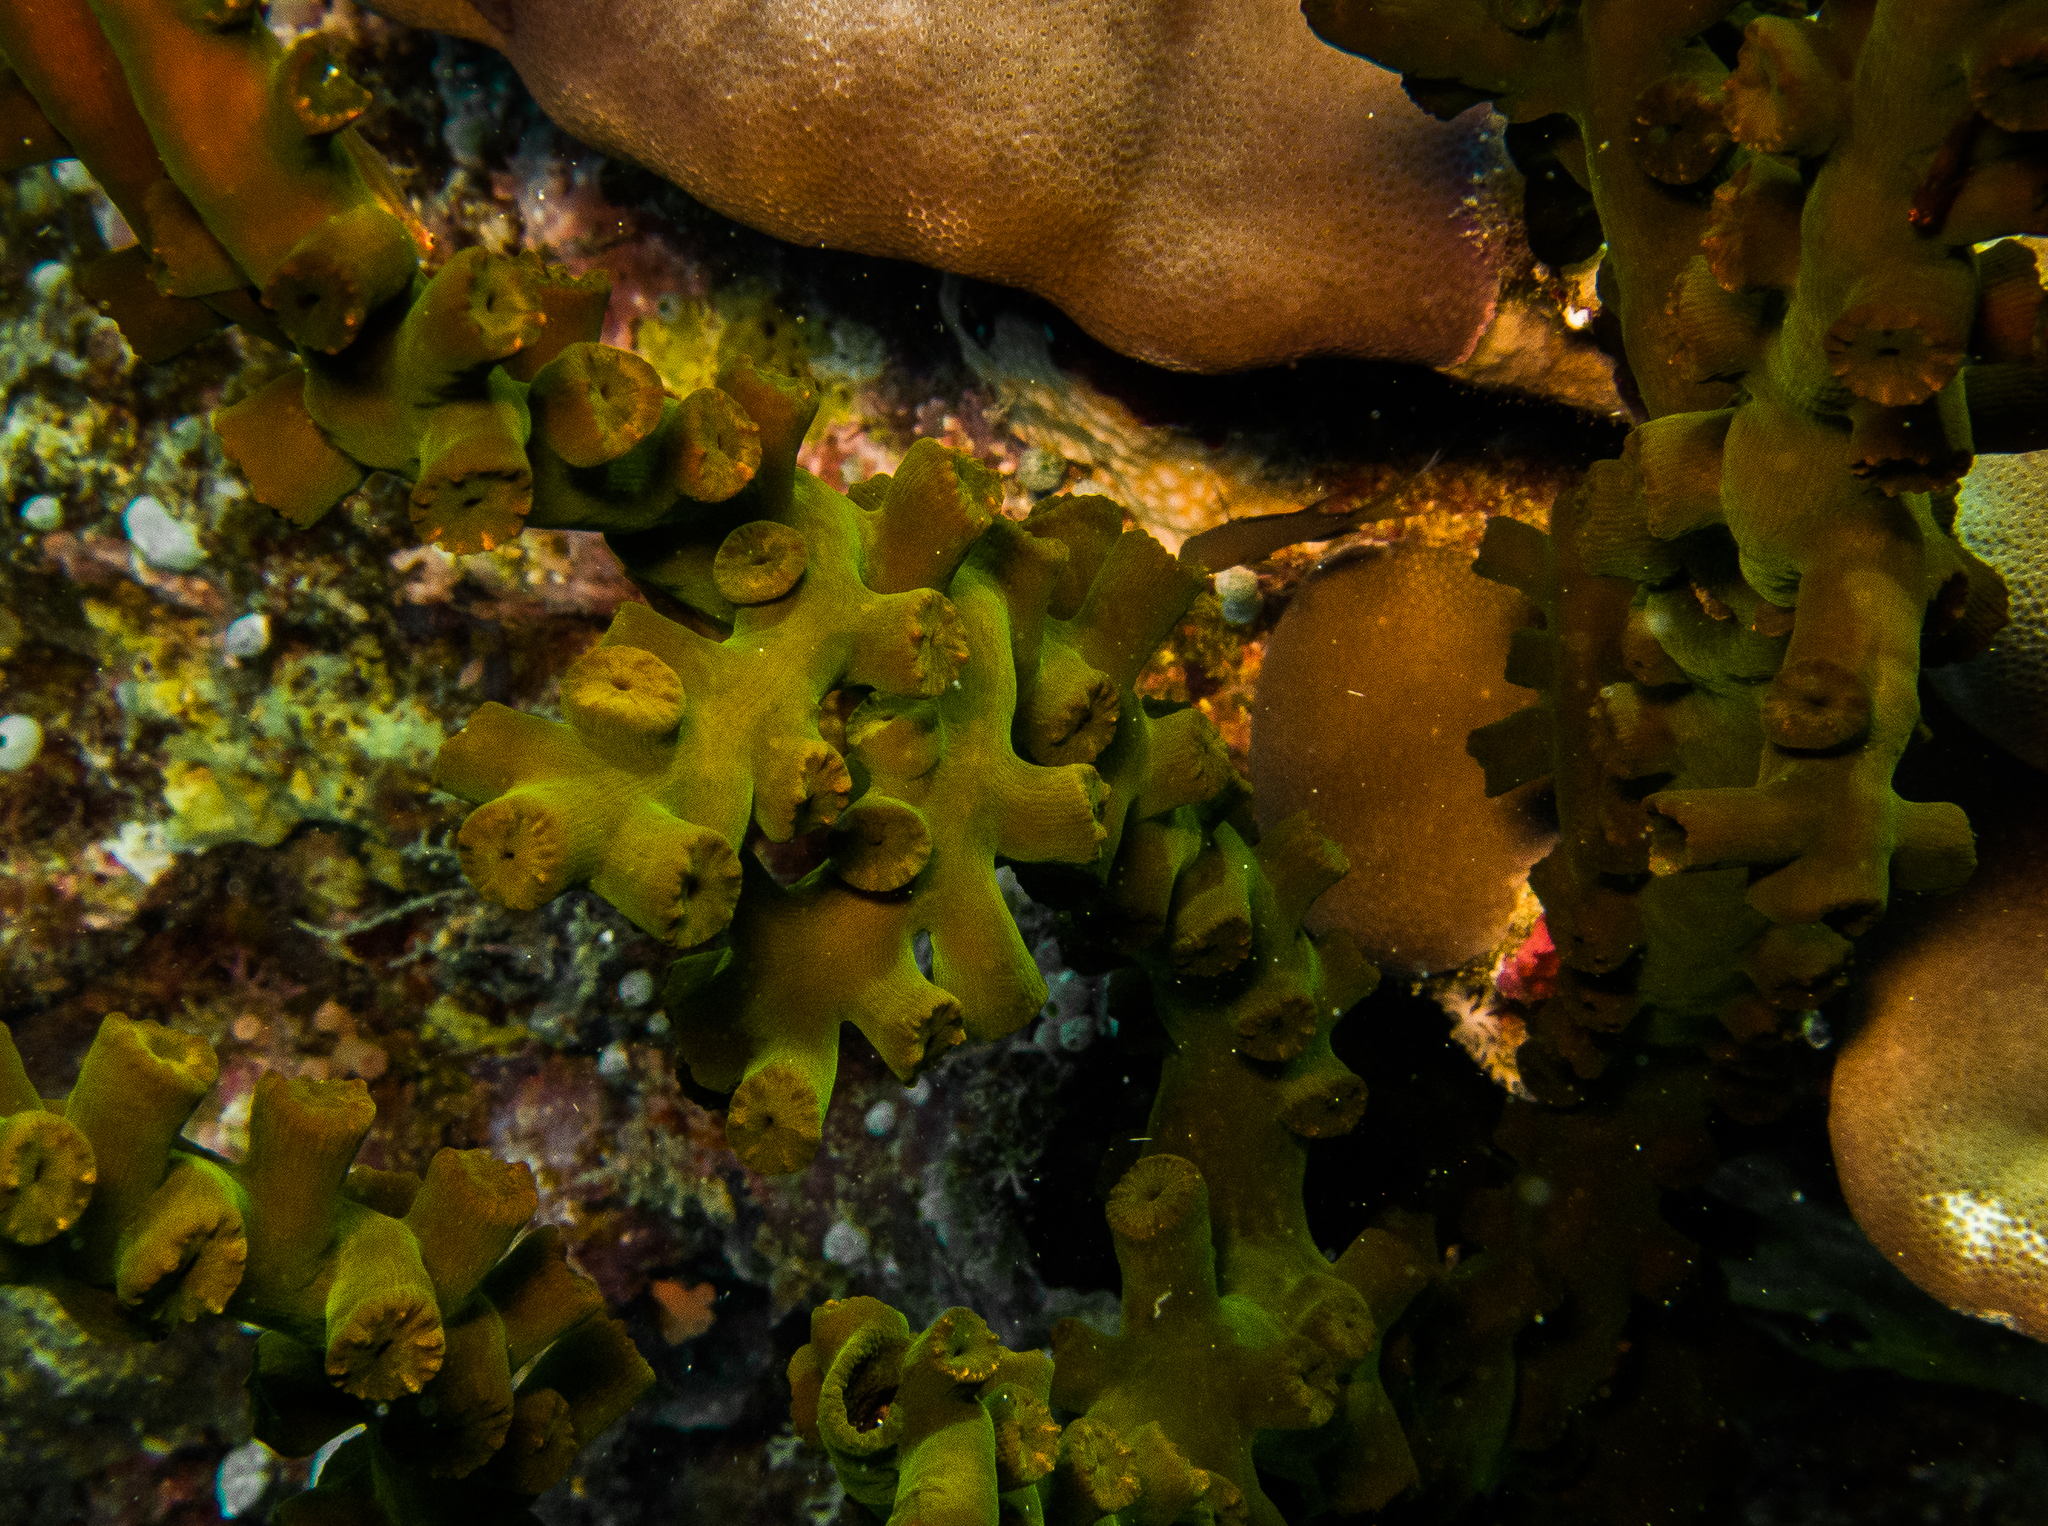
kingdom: Animalia
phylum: Cnidaria
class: Anthozoa
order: Scleractinia
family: Dendrophylliidae
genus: Tubastraea
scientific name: Tubastraea micranthus
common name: Black sun coral
